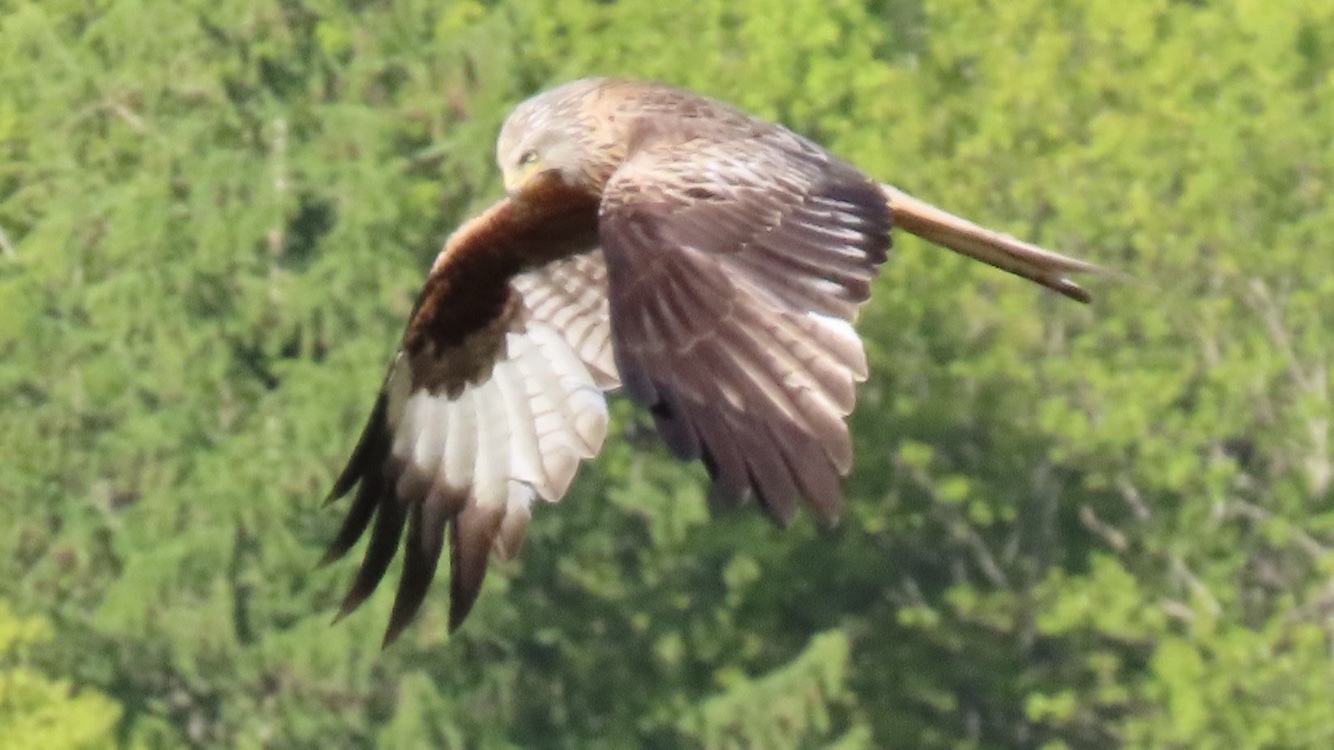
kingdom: Animalia
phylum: Chordata
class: Aves
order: Accipitriformes
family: Accipitridae
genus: Milvus
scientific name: Milvus milvus
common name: Red kite
